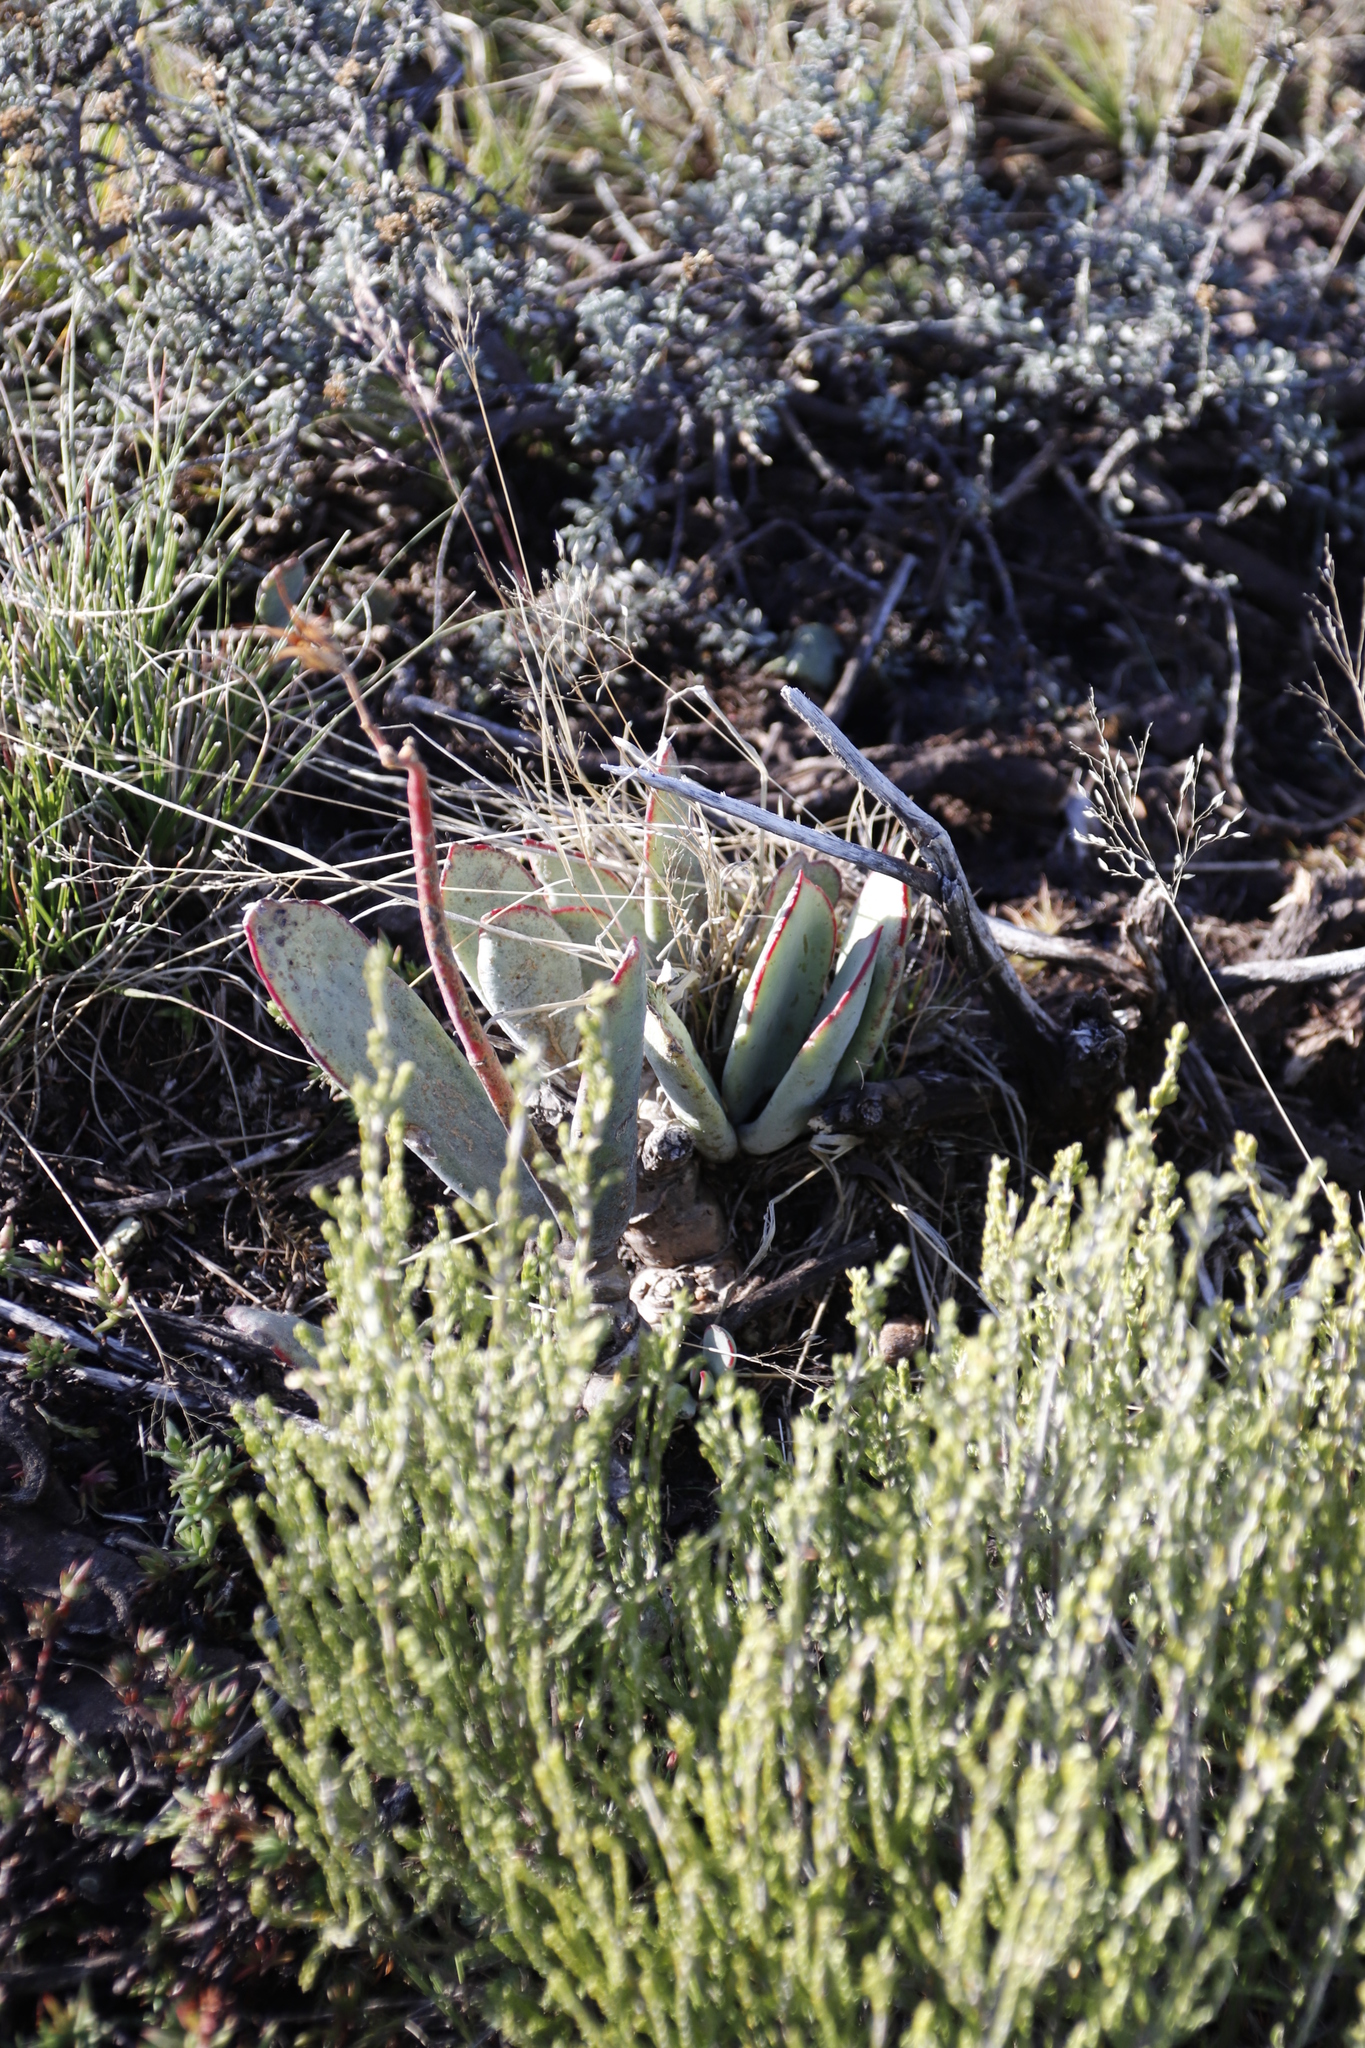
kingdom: Plantae
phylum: Tracheophyta
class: Magnoliopsida
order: Saxifragales
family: Crassulaceae
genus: Cotyledon
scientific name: Cotyledon orbiculata
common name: Pig's ear
